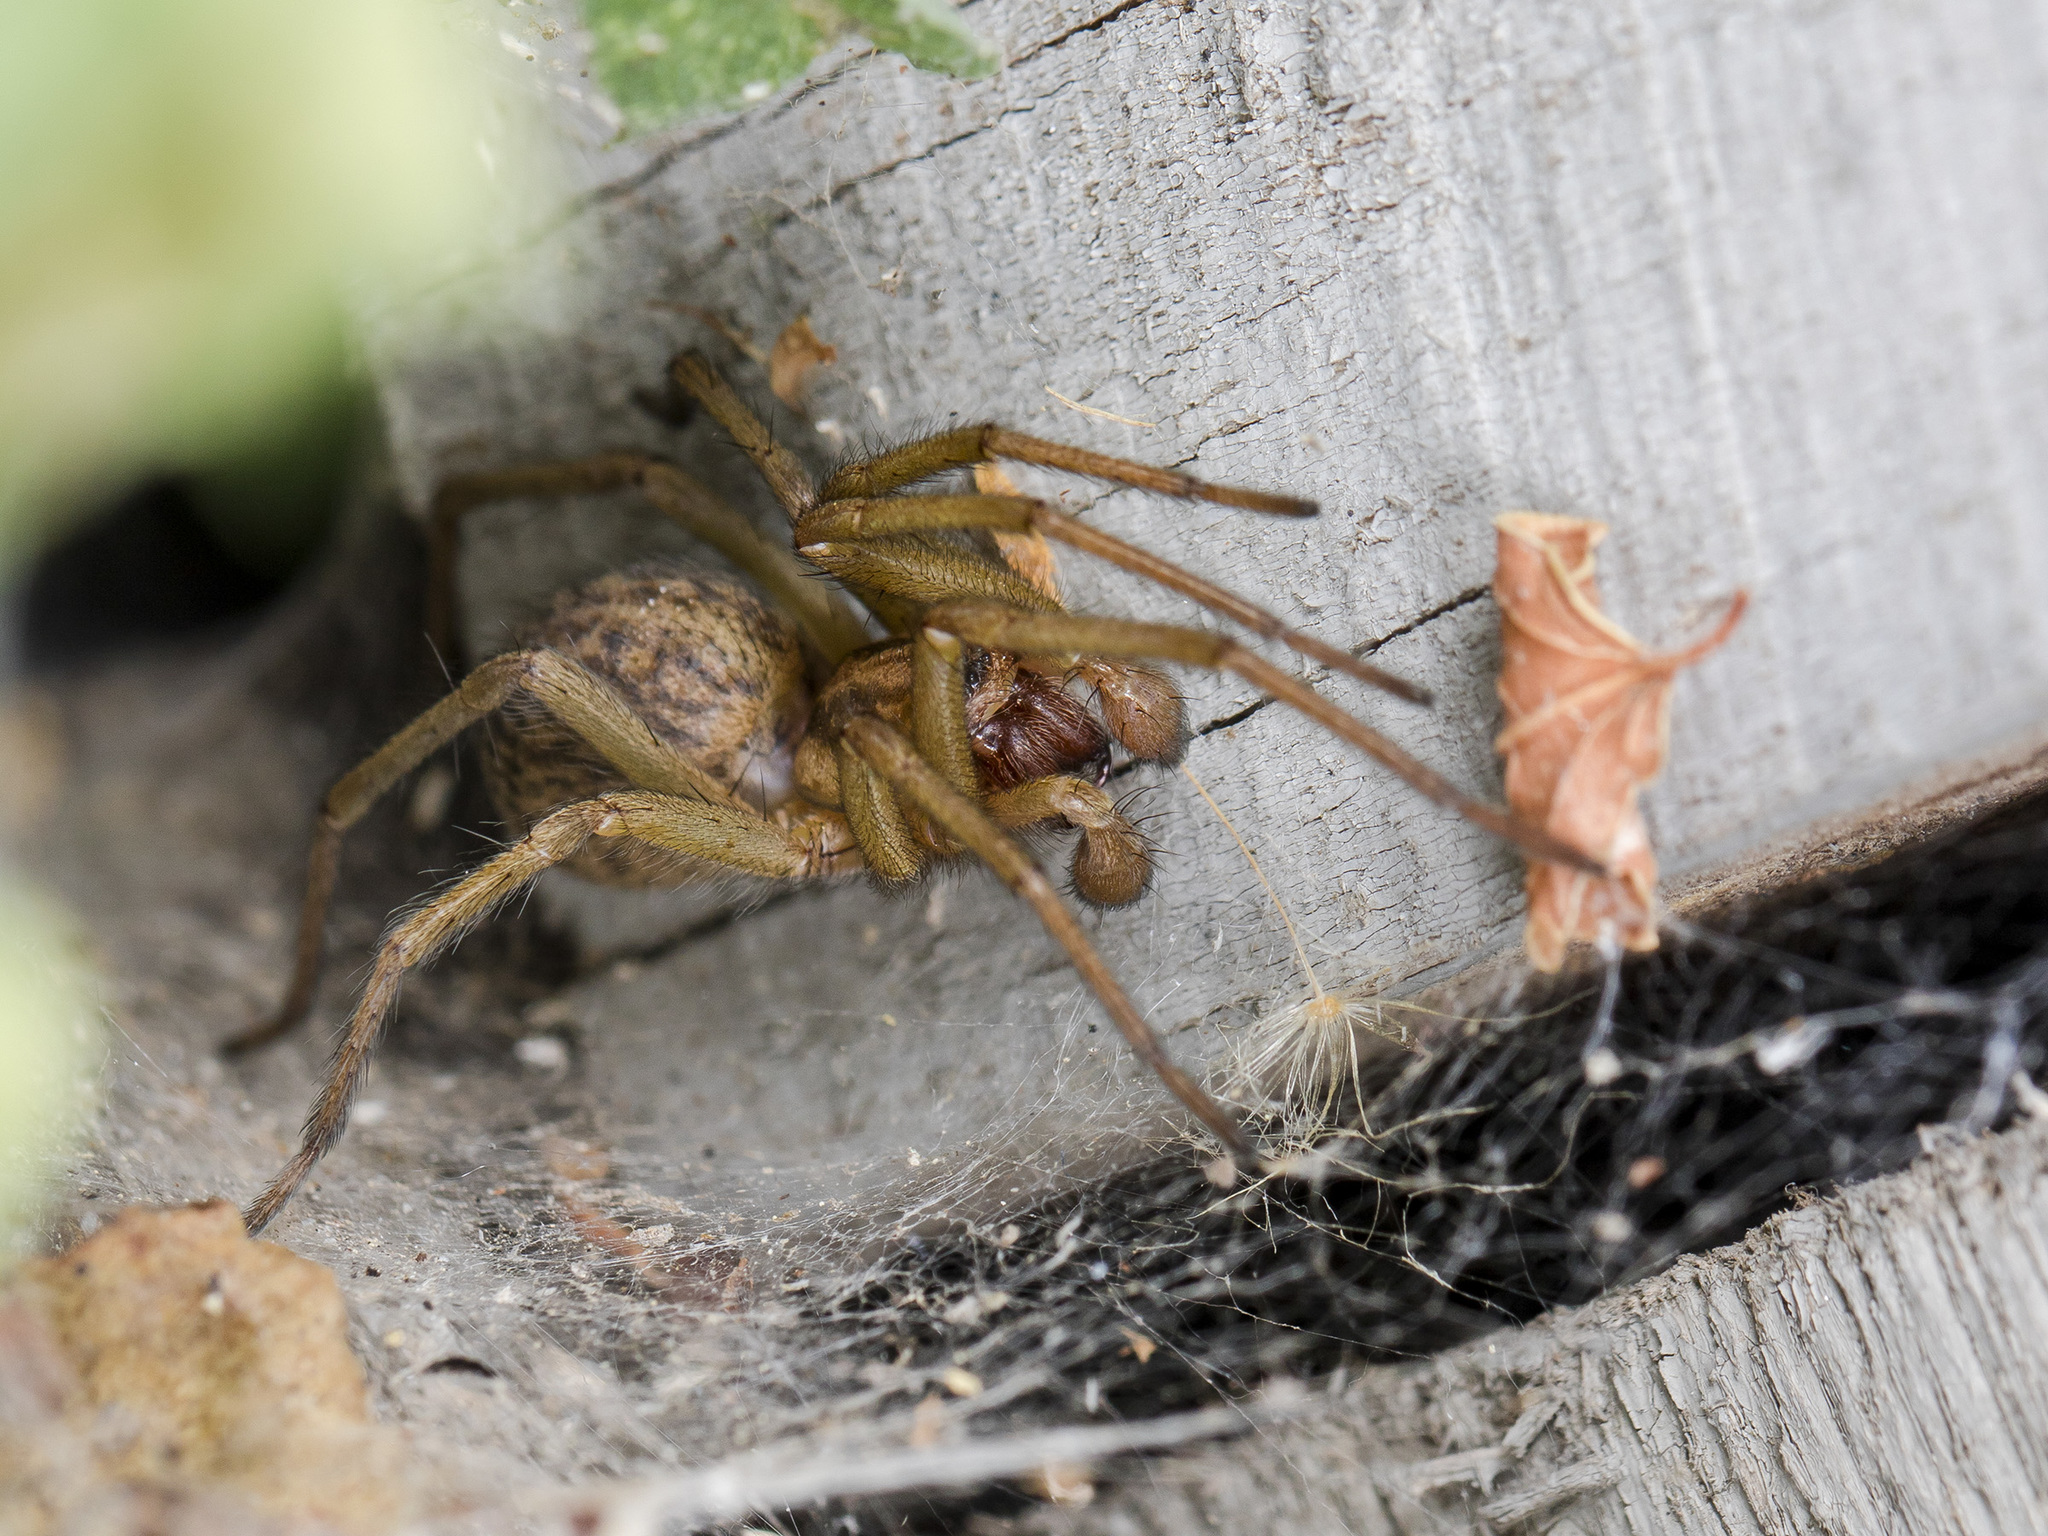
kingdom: Animalia
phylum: Arthropoda
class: Arachnida
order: Araneae
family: Agelenidae
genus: Eratigena
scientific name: Eratigena agrestis
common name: Hobo spider
